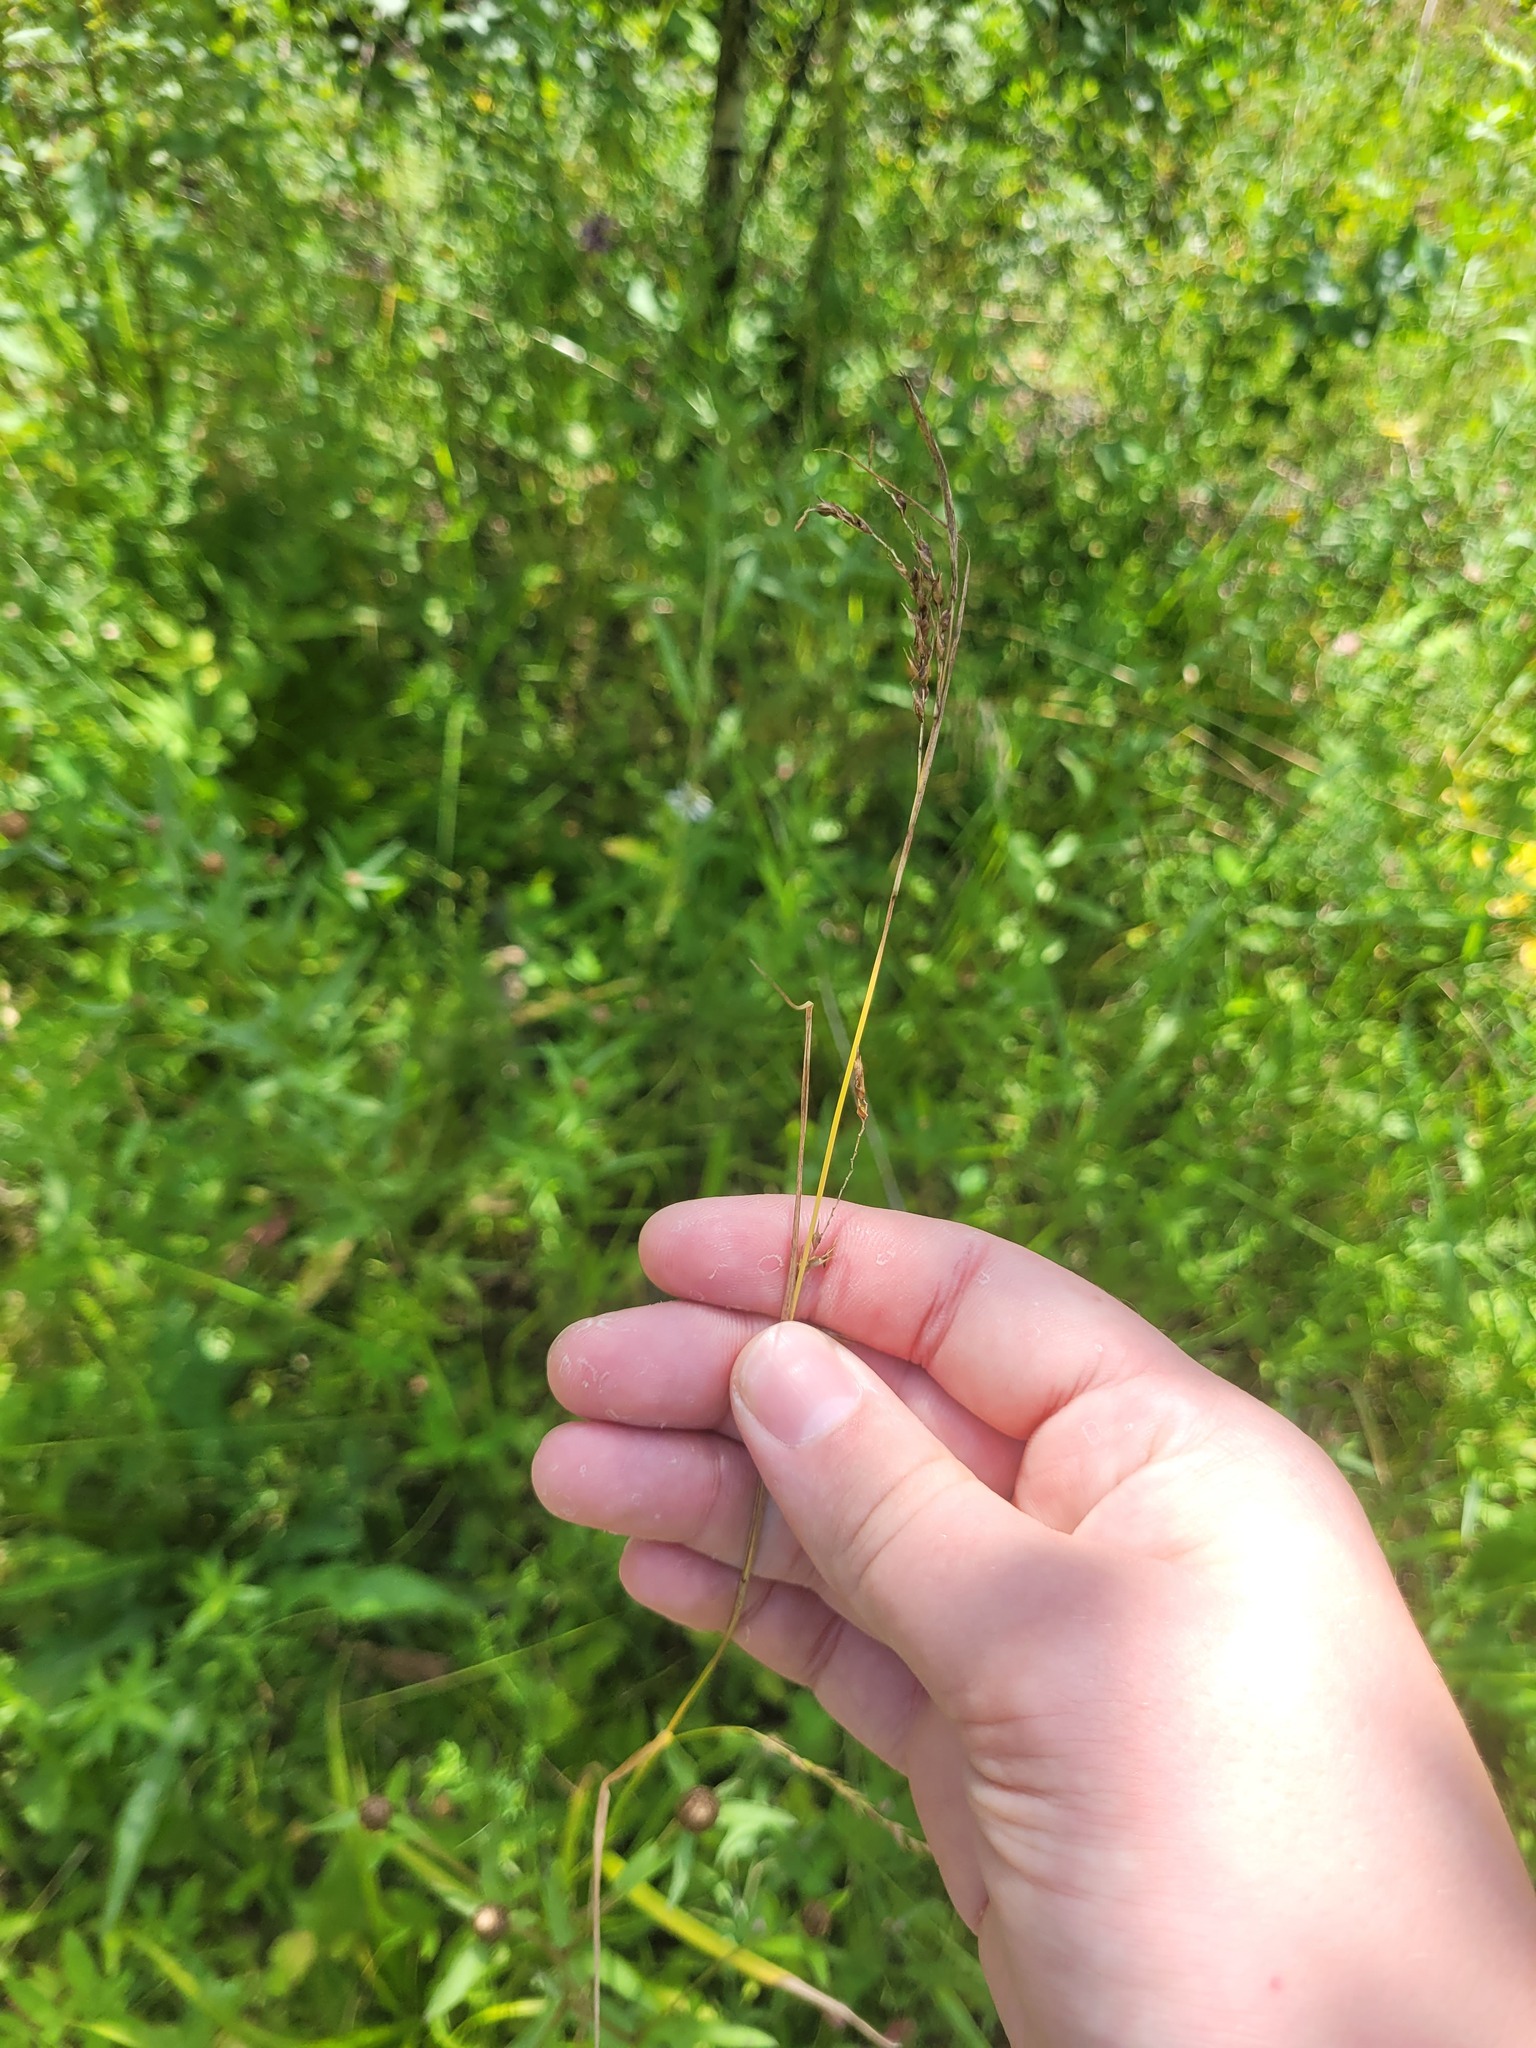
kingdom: Plantae
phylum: Tracheophyta
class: Liliopsida
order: Poales
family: Cyperaceae
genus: Carex
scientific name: Carex sylvatica
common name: Wood-sedge
